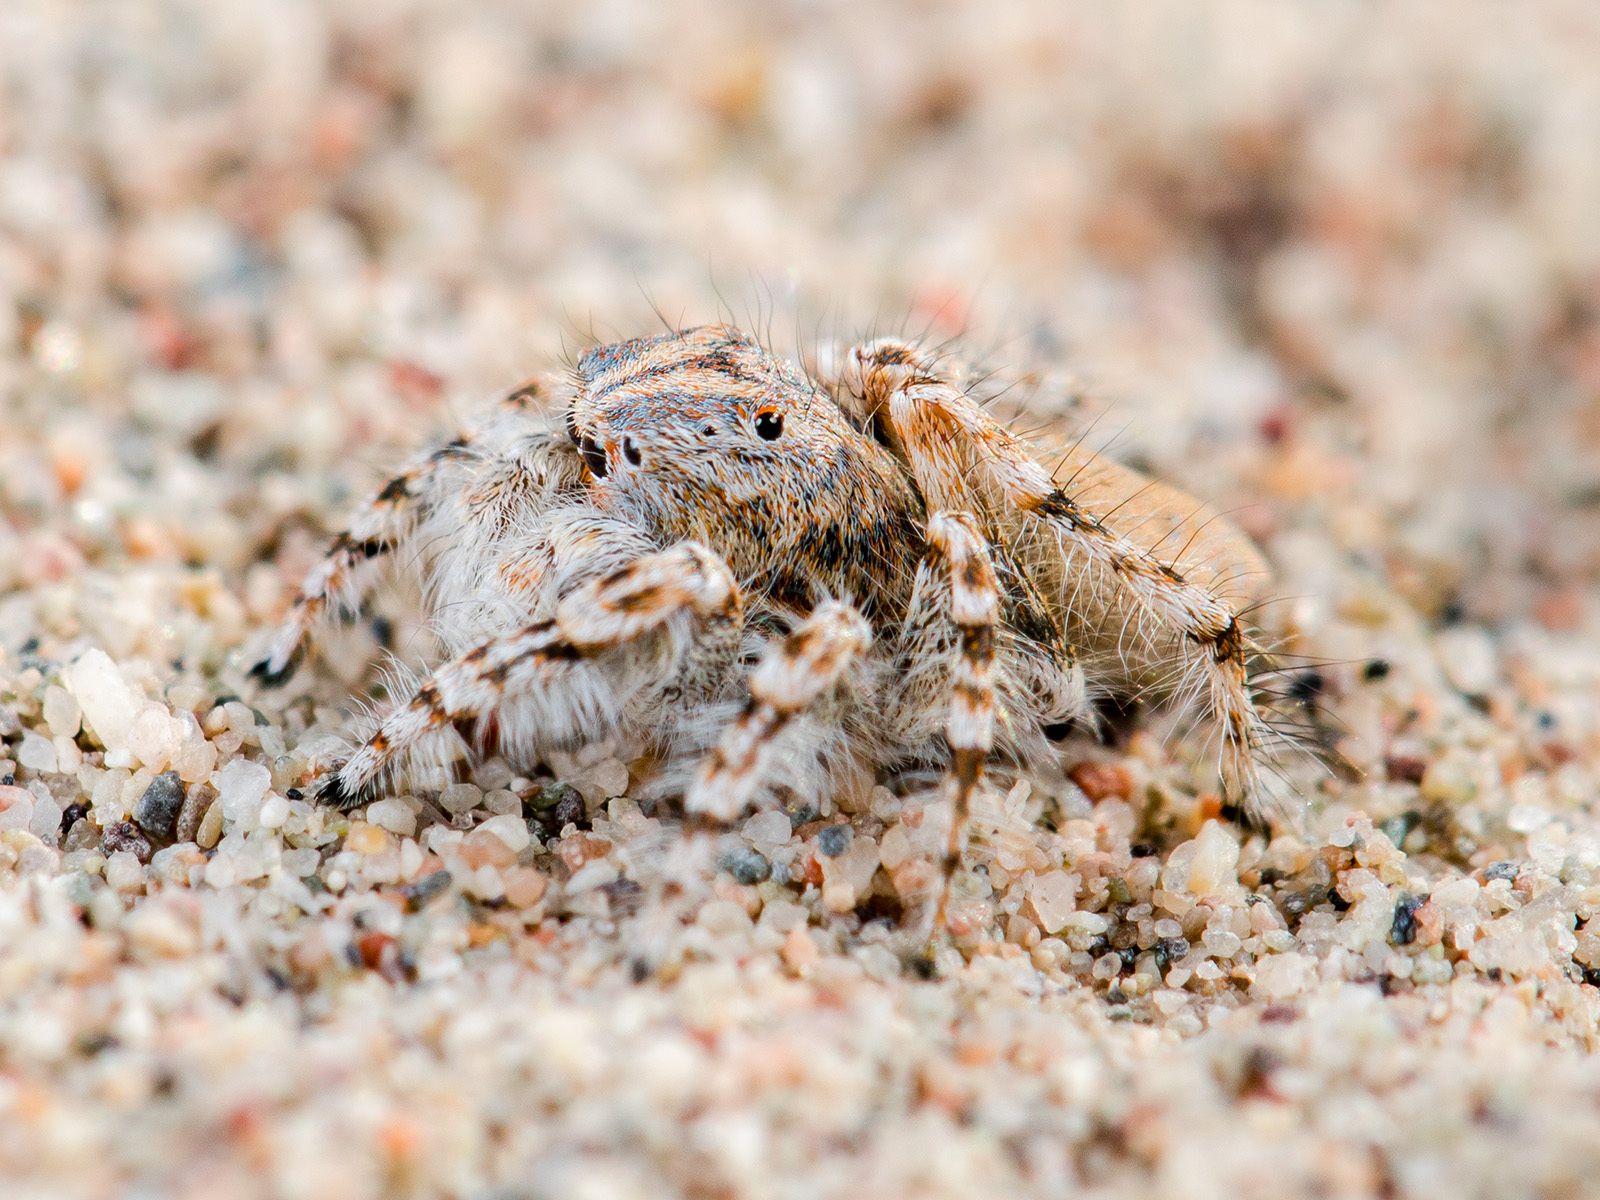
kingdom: Animalia
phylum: Arthropoda
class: Arachnida
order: Araneae
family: Salticidae
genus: Yllenus
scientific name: Yllenus uiguricus
